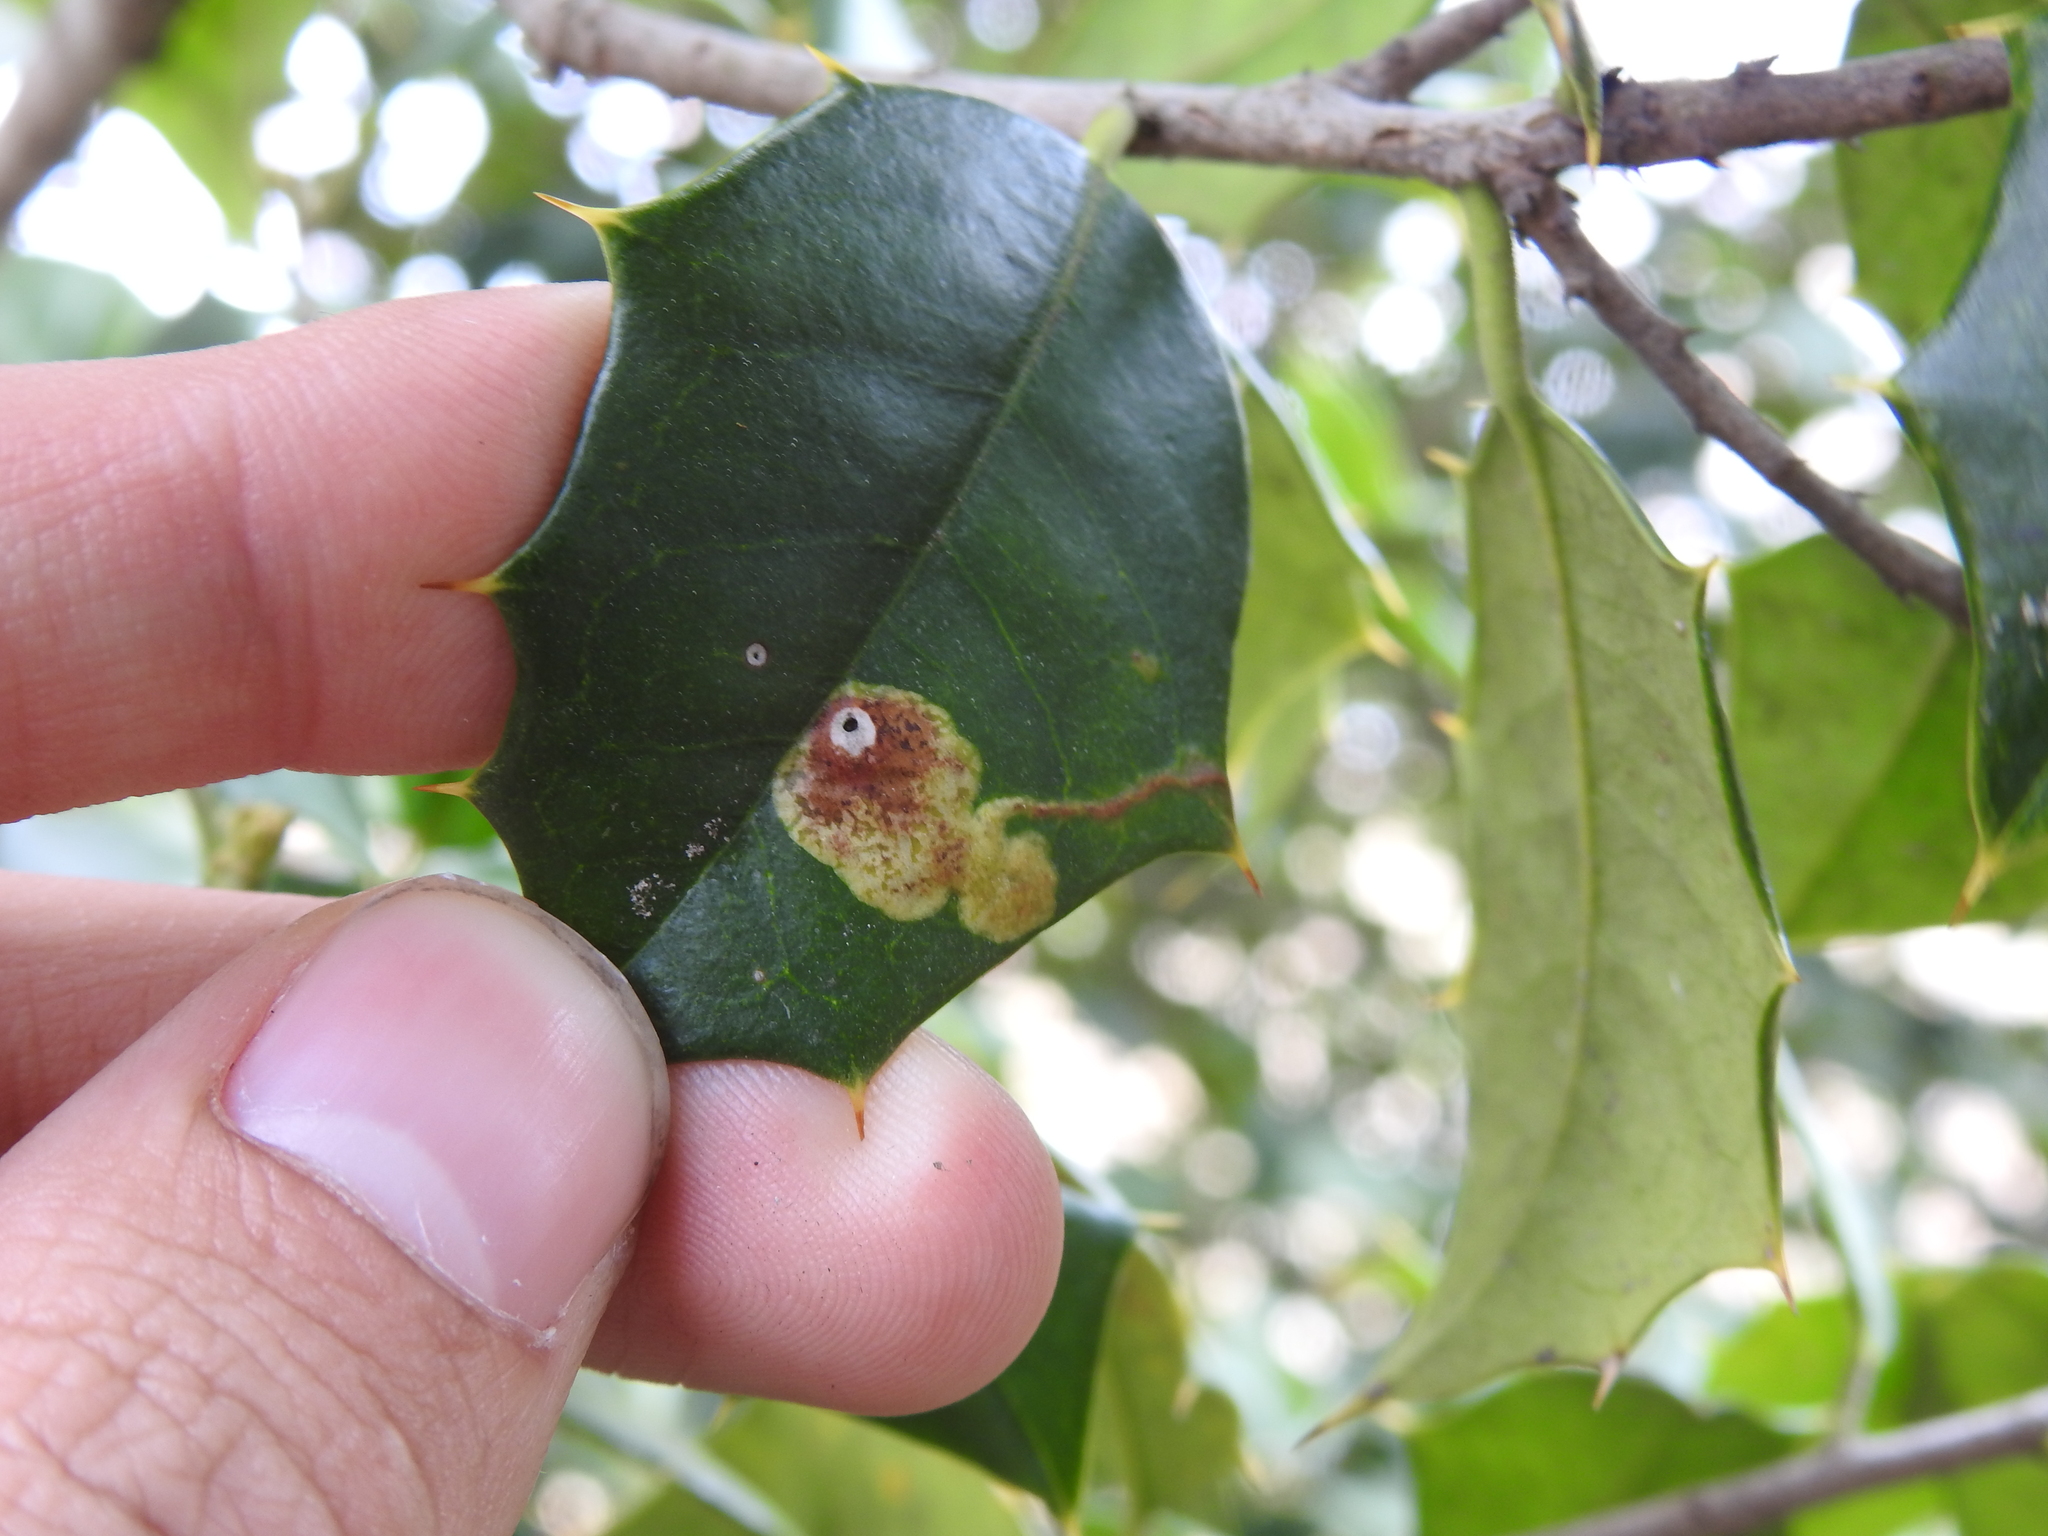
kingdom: Animalia
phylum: Arthropoda
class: Insecta
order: Diptera
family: Agromyzidae
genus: Phytomyza
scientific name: Phytomyza ilicicola
